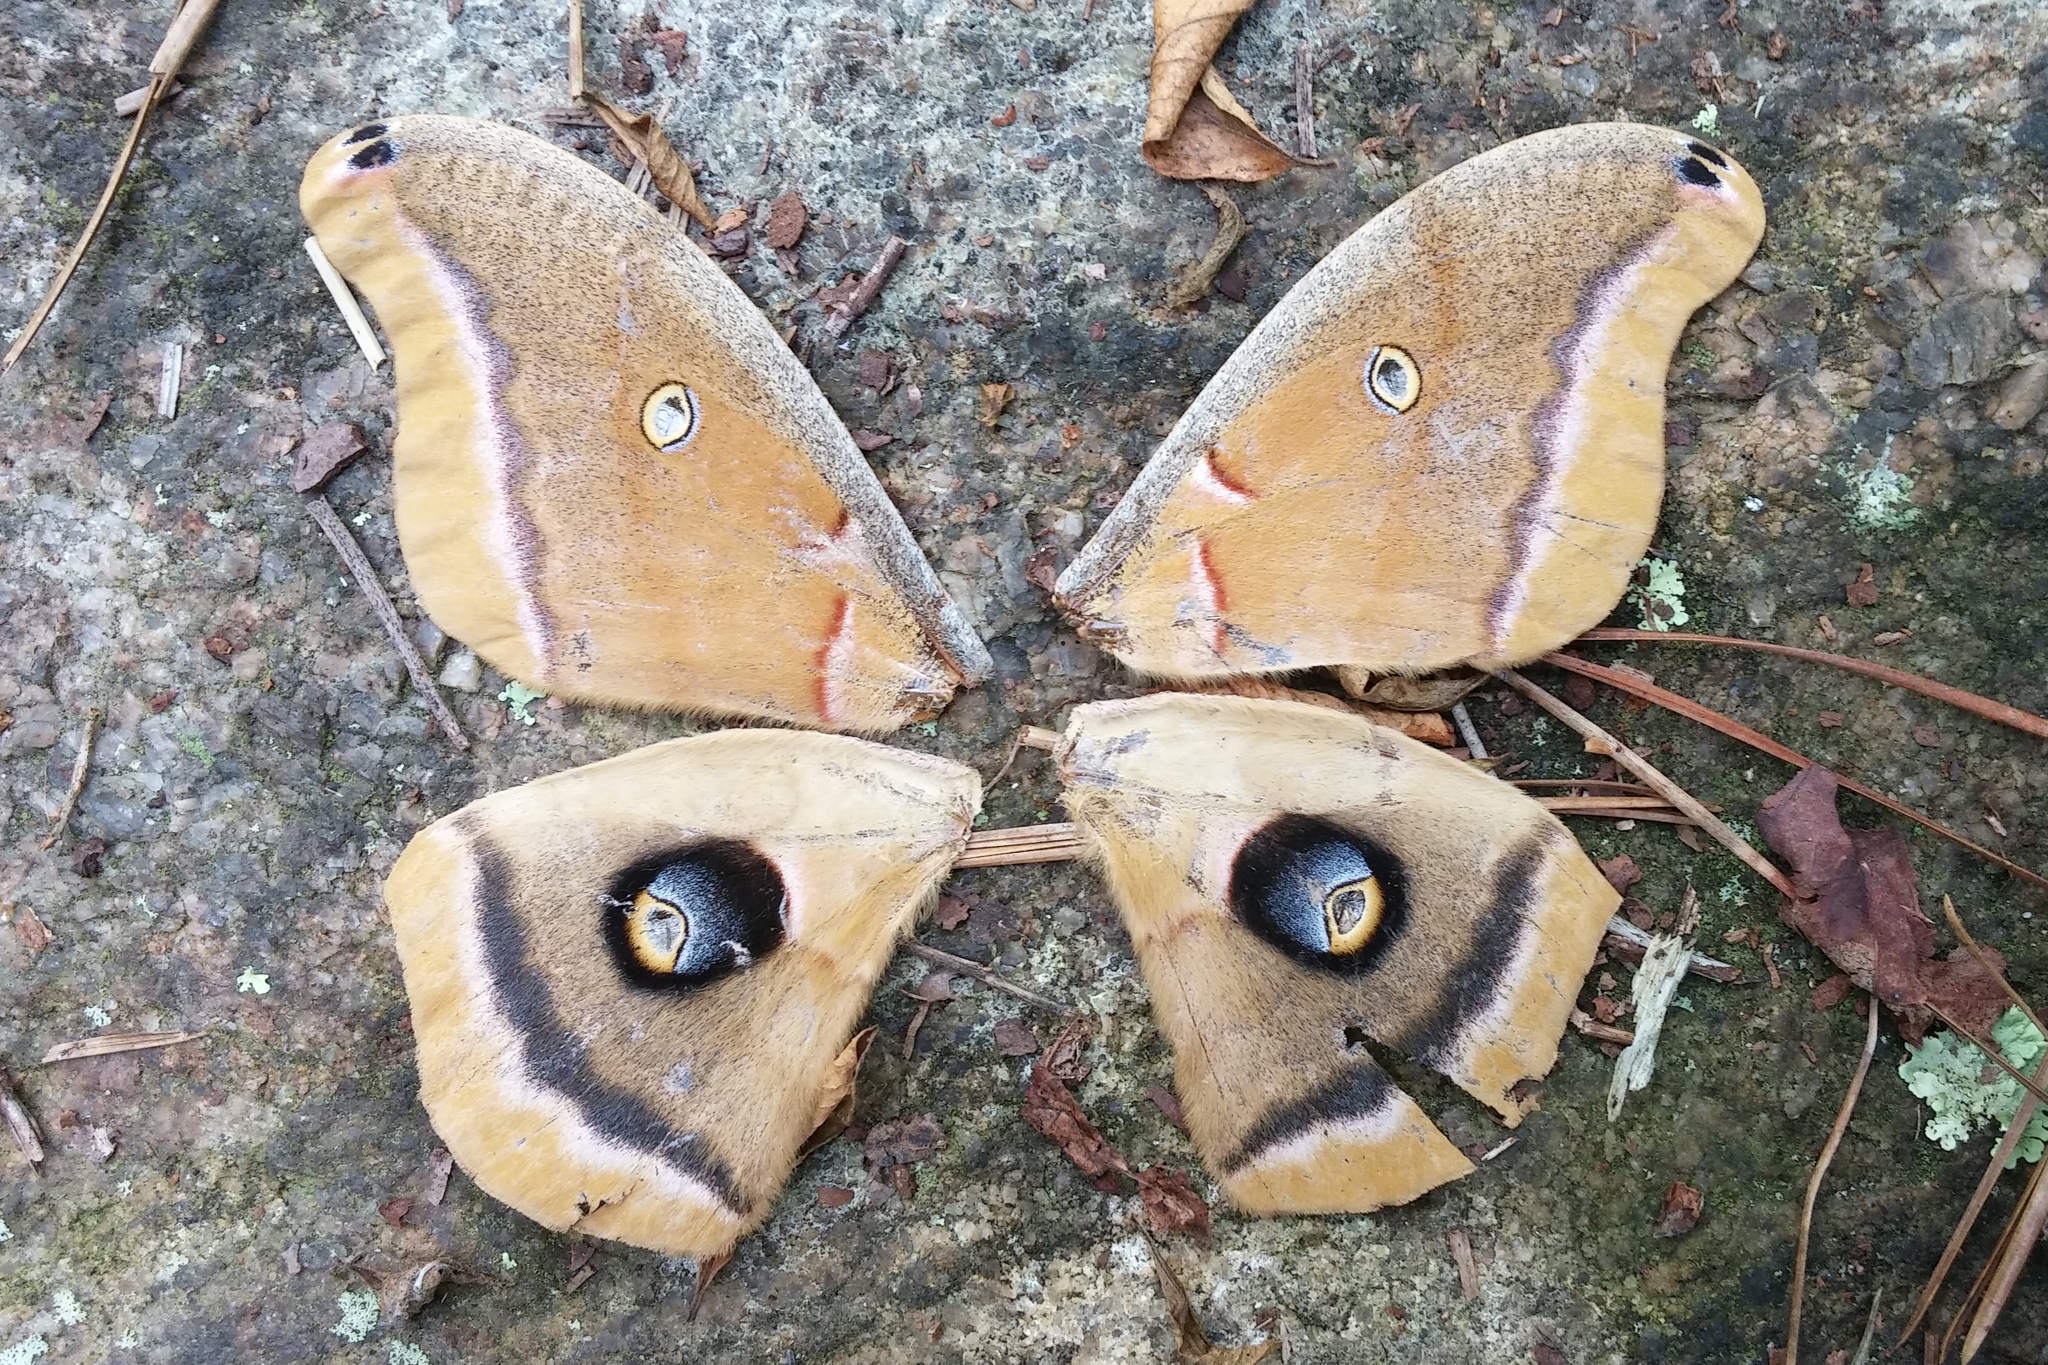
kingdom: Animalia
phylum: Arthropoda
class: Insecta
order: Lepidoptera
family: Saturniidae
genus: Antheraea
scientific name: Antheraea polyphemus
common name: Polyphemus moth
